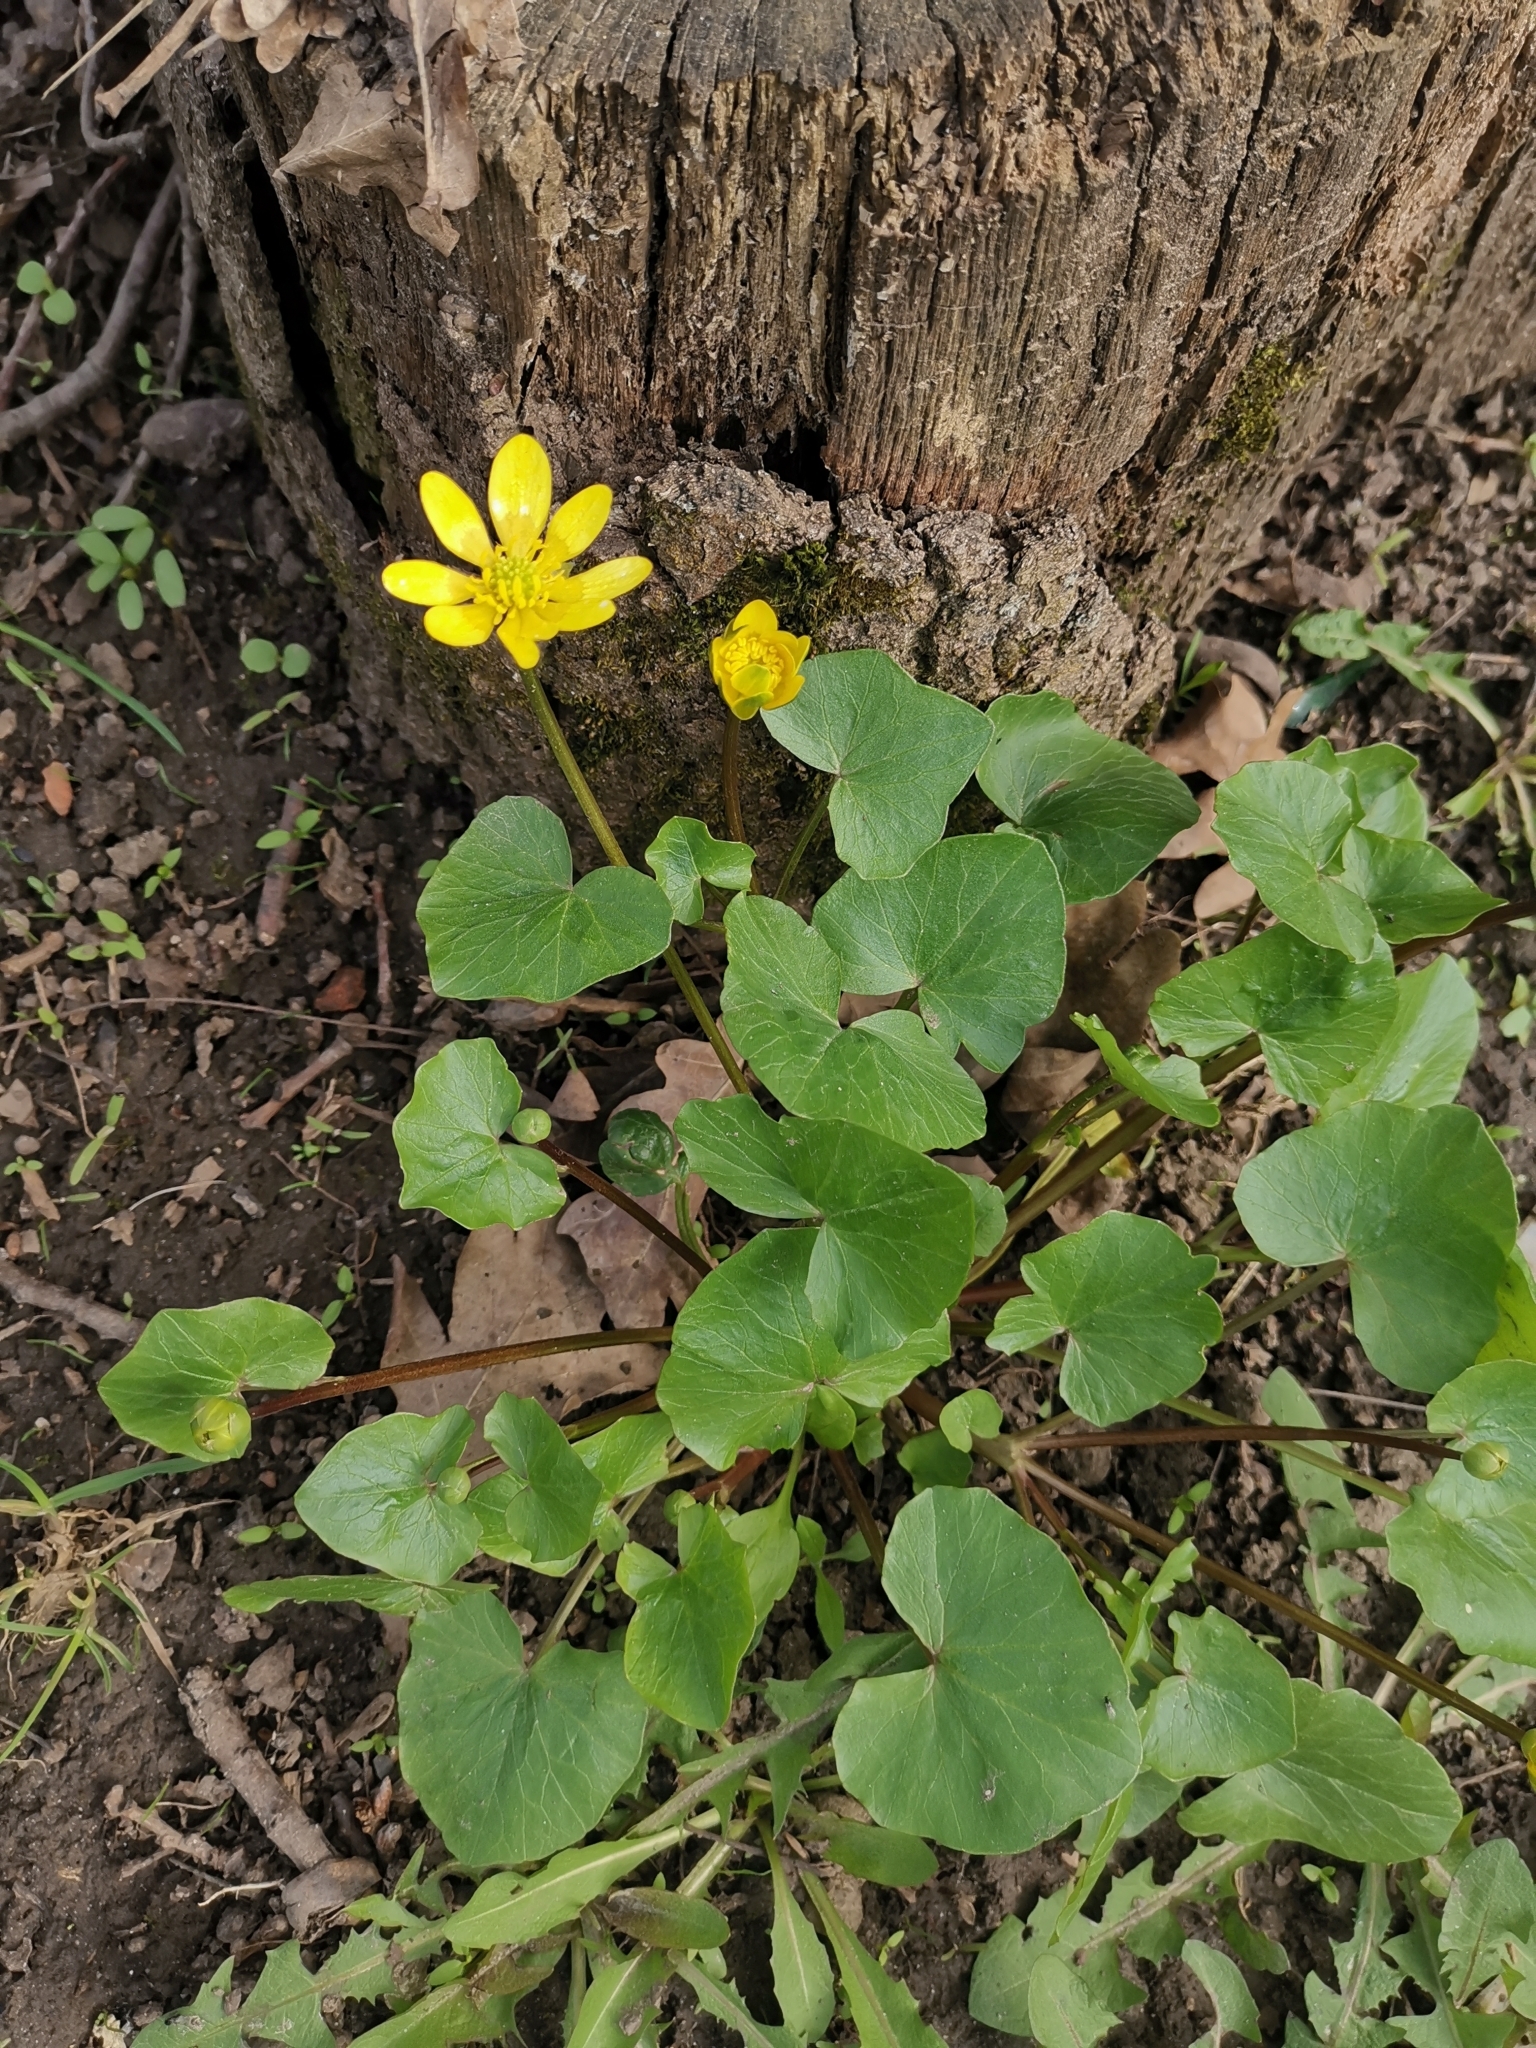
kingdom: Plantae
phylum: Tracheophyta
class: Magnoliopsida
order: Ranunculales
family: Ranunculaceae
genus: Ficaria
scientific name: Ficaria verna
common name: Lesser celandine
